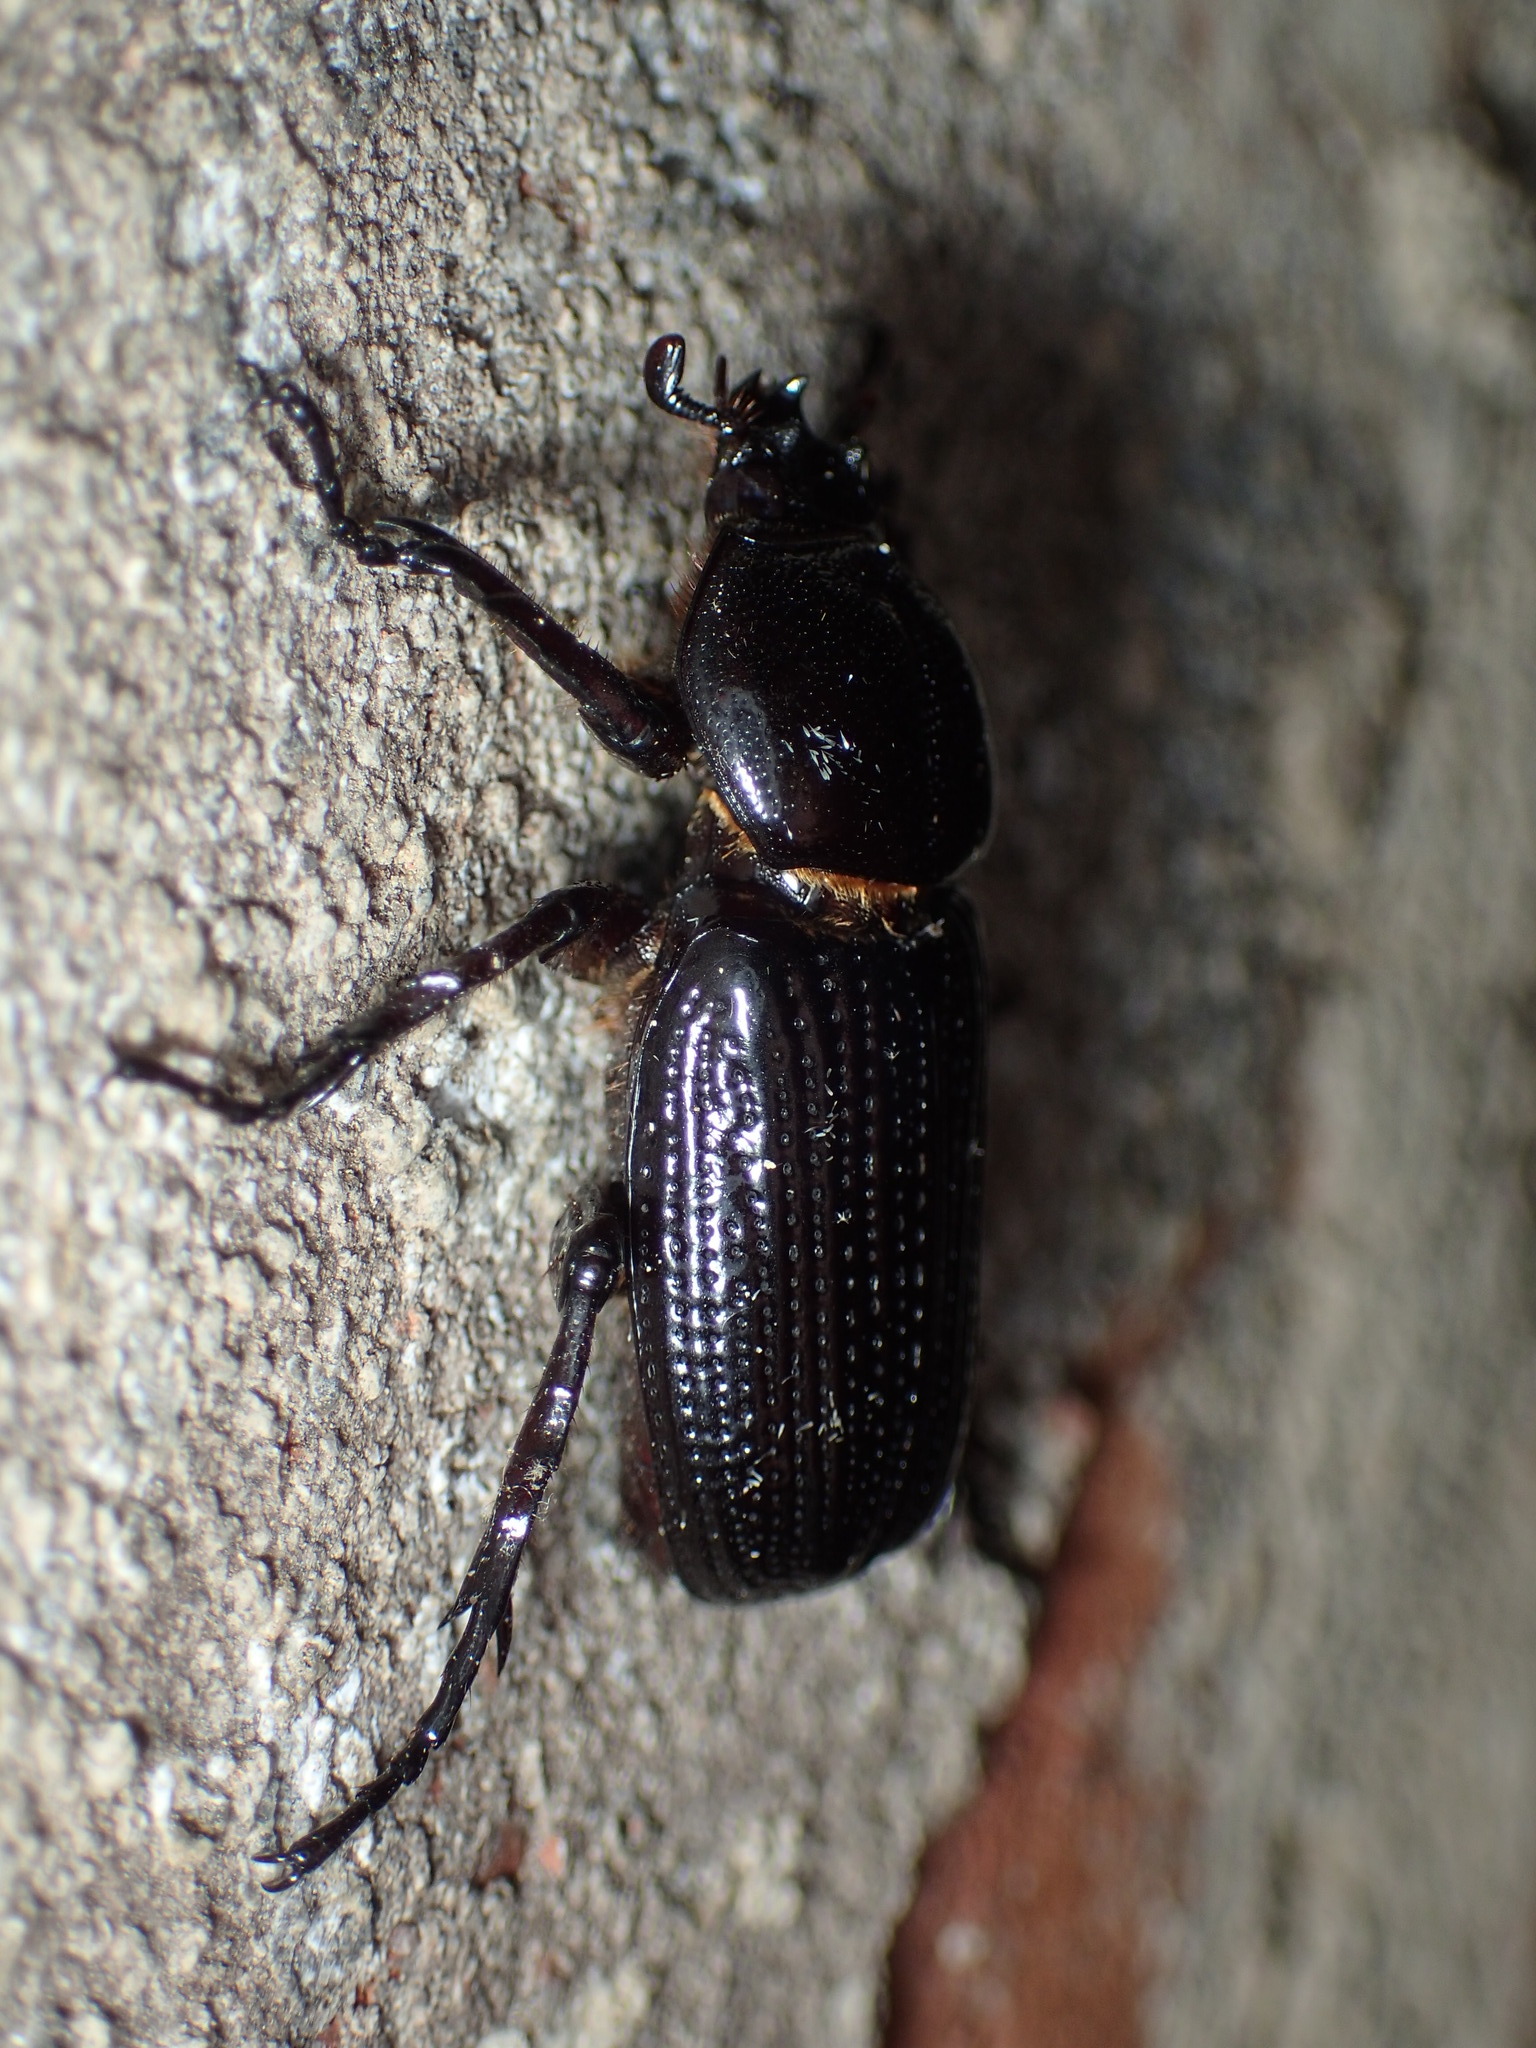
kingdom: Animalia
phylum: Arthropoda
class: Insecta
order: Coleoptera
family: Scarabaeidae
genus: Phileurus
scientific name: Phileurus valgus
